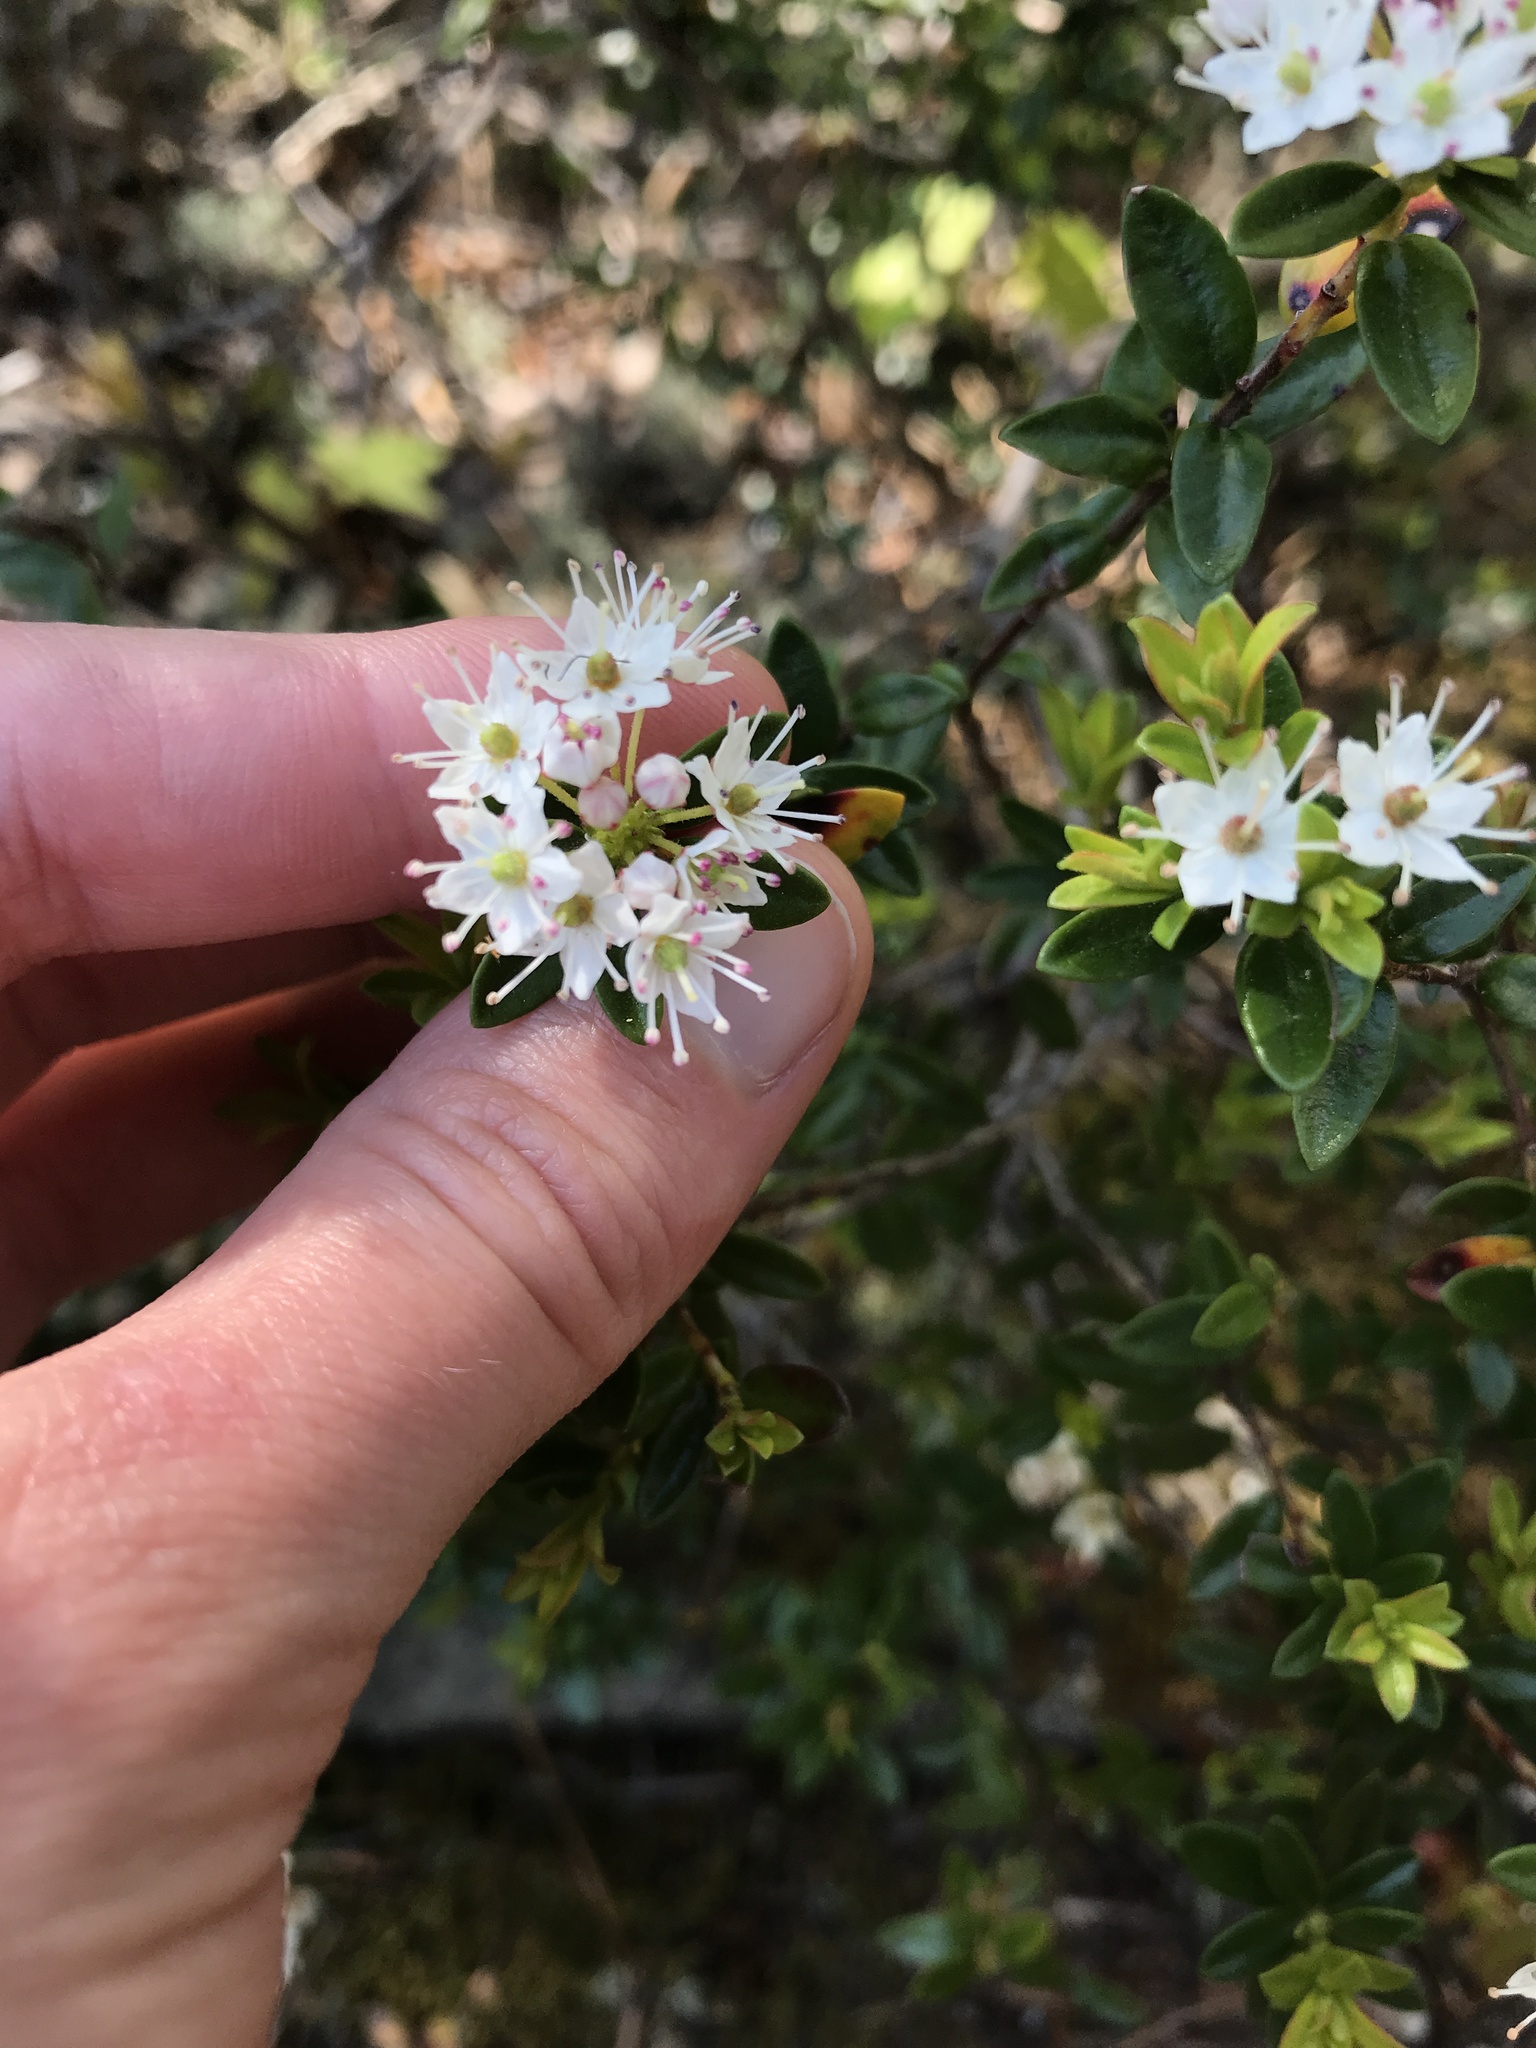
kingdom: Plantae
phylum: Tracheophyta
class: Magnoliopsida
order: Ericales
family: Ericaceae
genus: Kalmia
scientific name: Kalmia buxifolia
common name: Sandmyrtle
